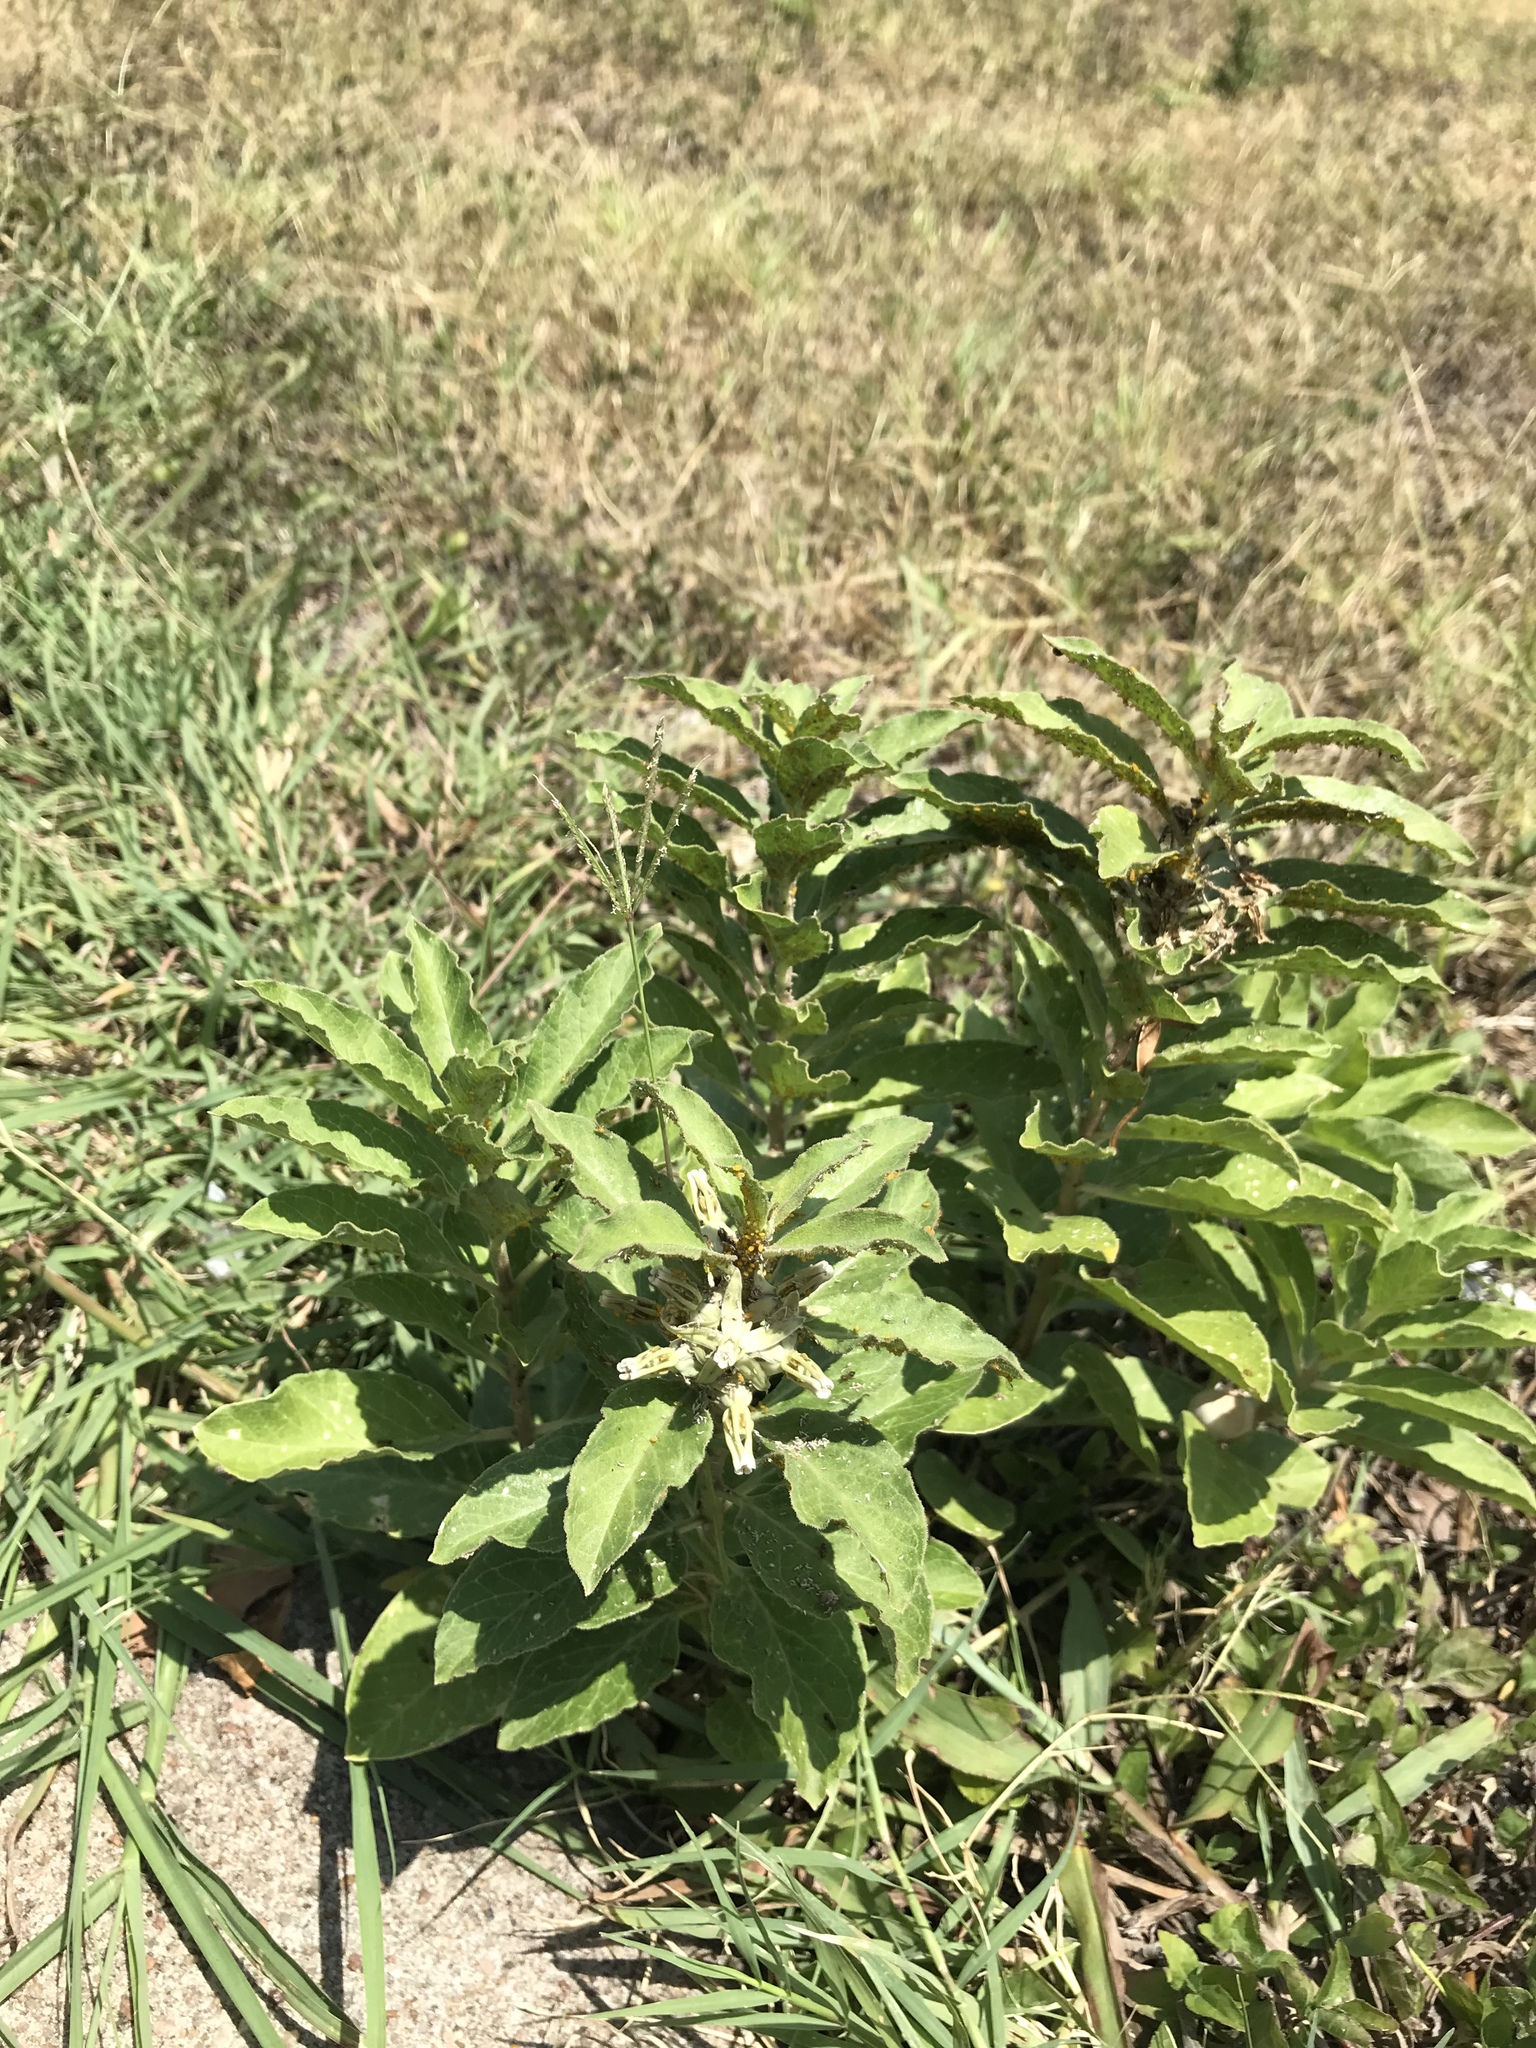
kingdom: Plantae
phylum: Tracheophyta
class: Magnoliopsida
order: Gentianales
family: Apocynaceae
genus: Asclepias
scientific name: Asclepias oenotheroides
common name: Zizotes milkweed
